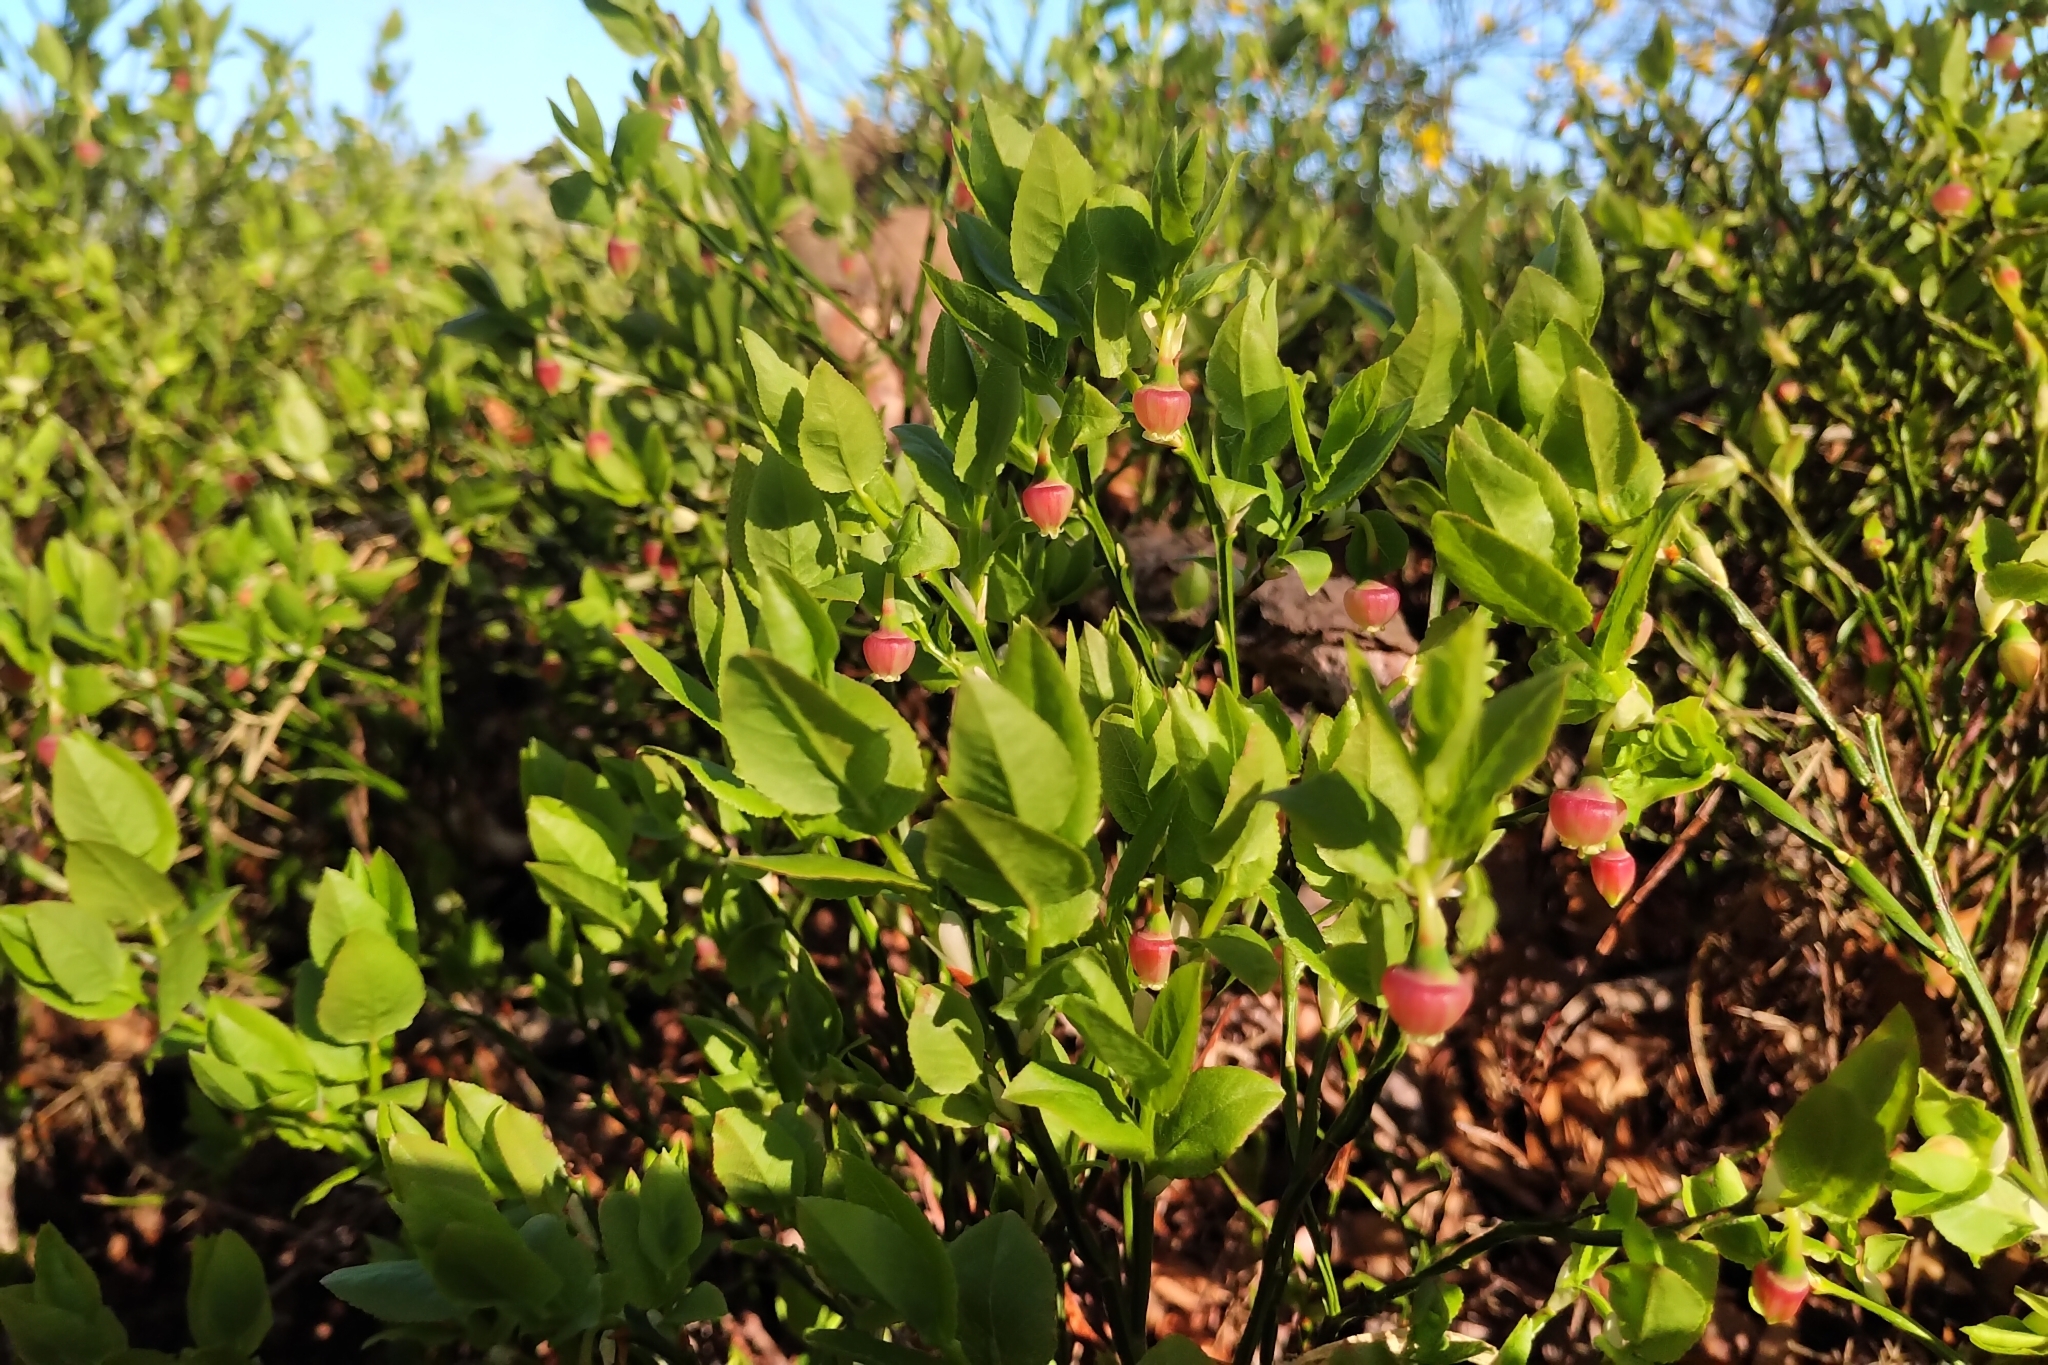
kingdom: Plantae
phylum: Tracheophyta
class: Magnoliopsida
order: Ericales
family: Ericaceae
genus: Vaccinium
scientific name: Vaccinium myrtillus
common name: Bilberry
